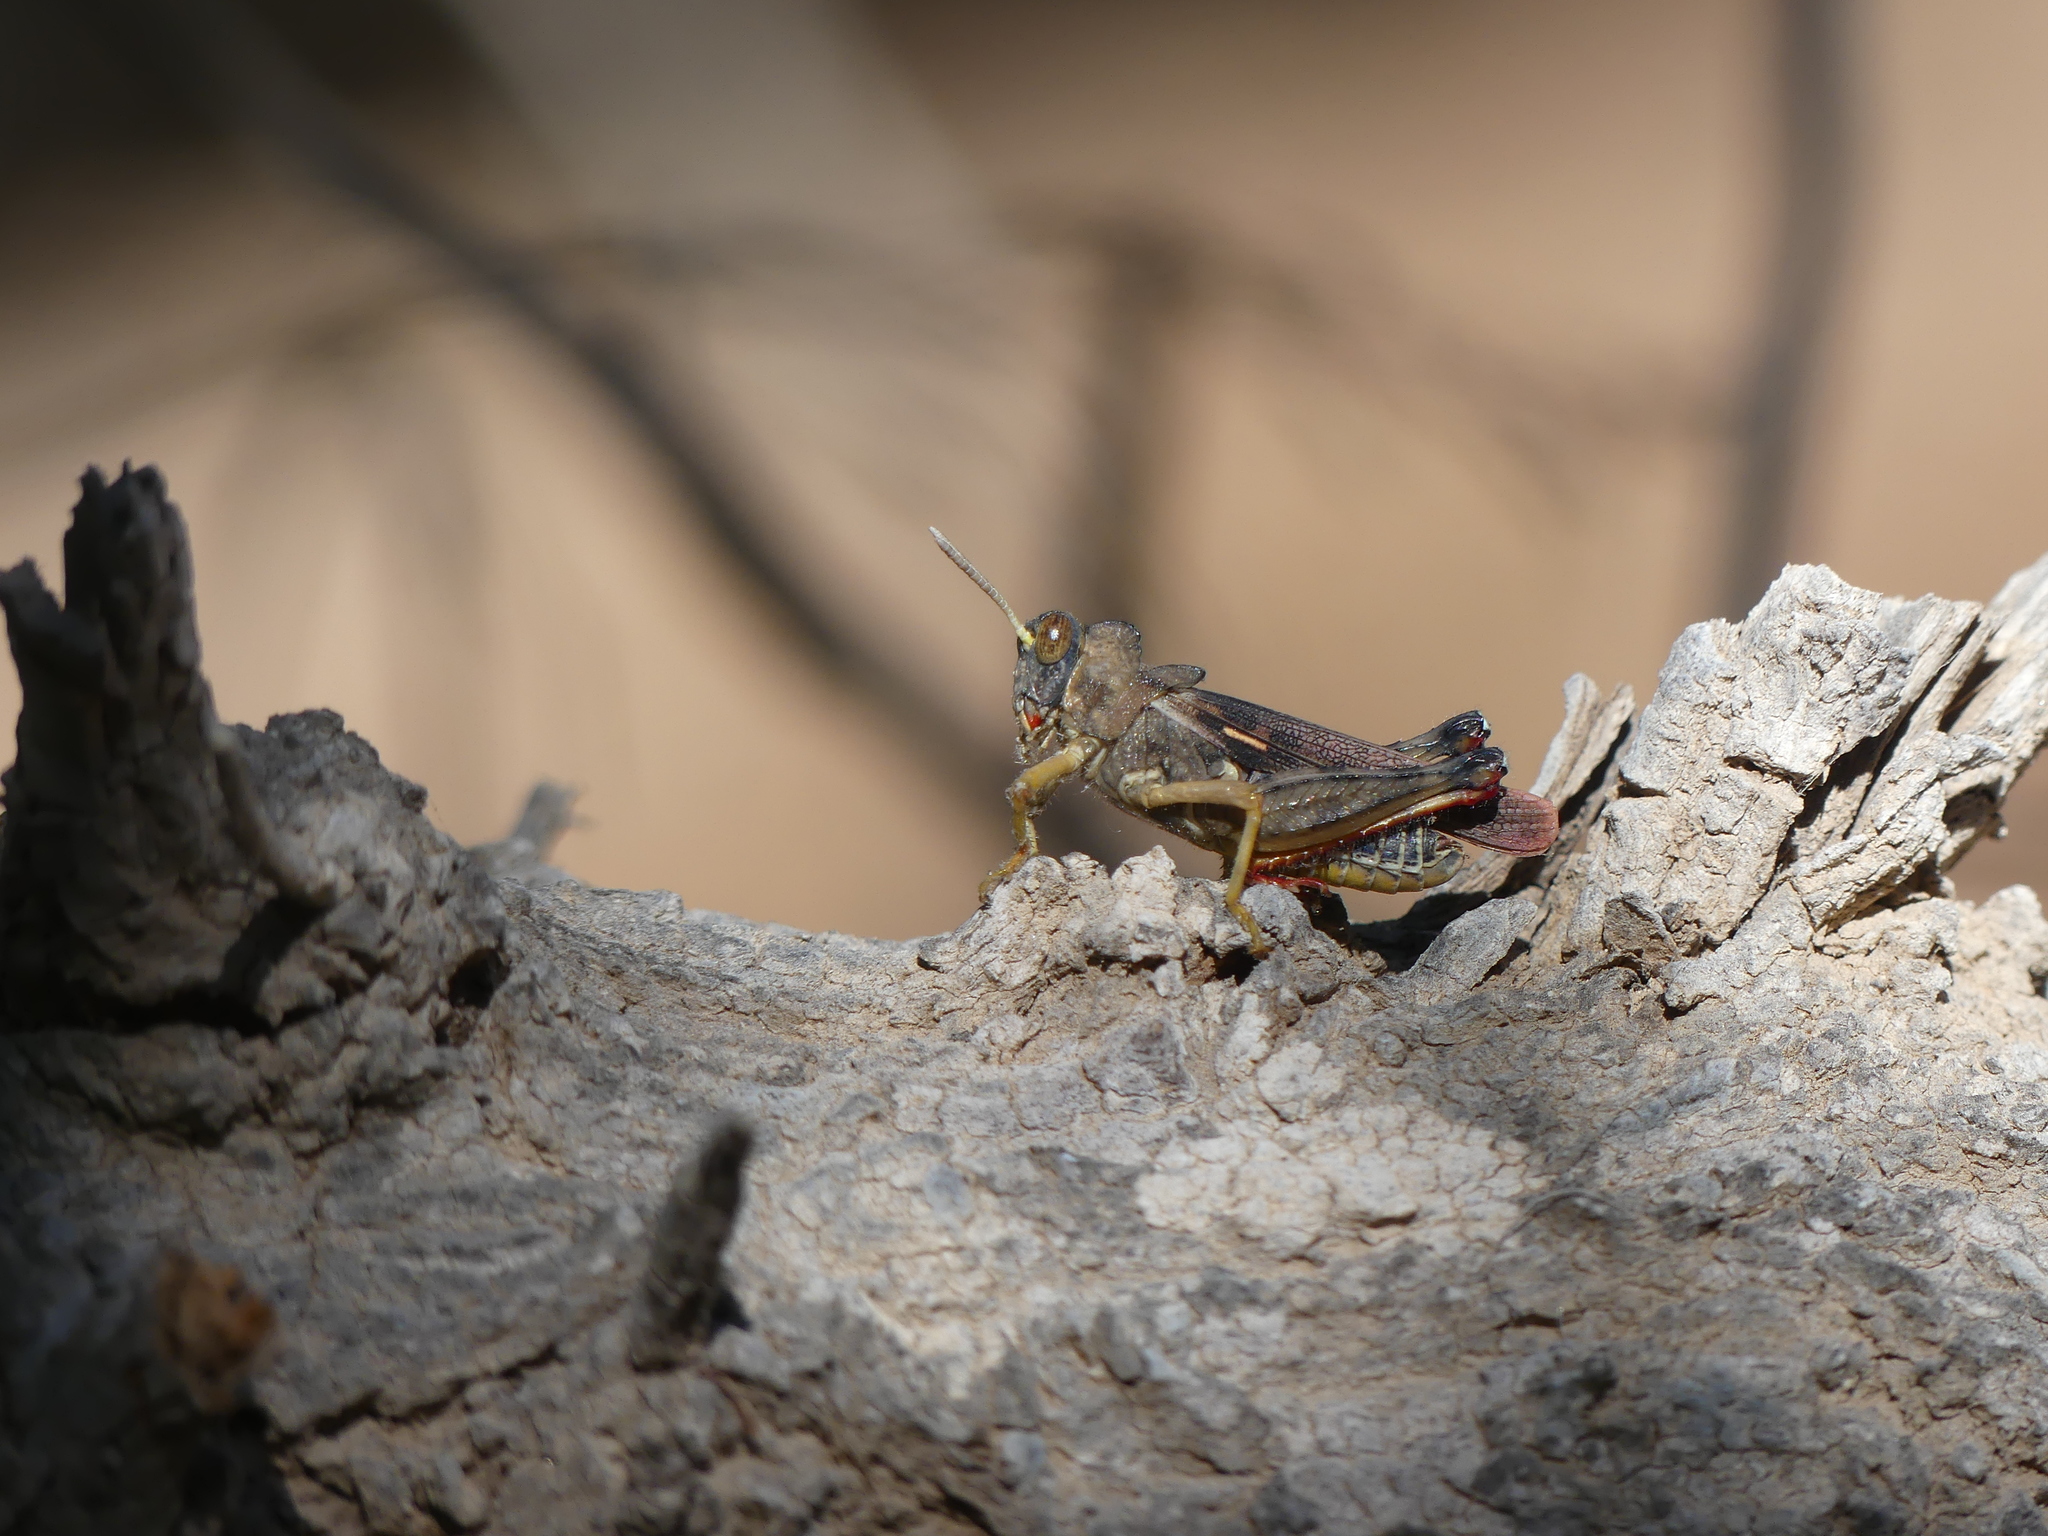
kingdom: Animalia
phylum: Arthropoda
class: Insecta
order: Orthoptera
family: Dericorythidae
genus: Dericorys
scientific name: Dericorys lobata
